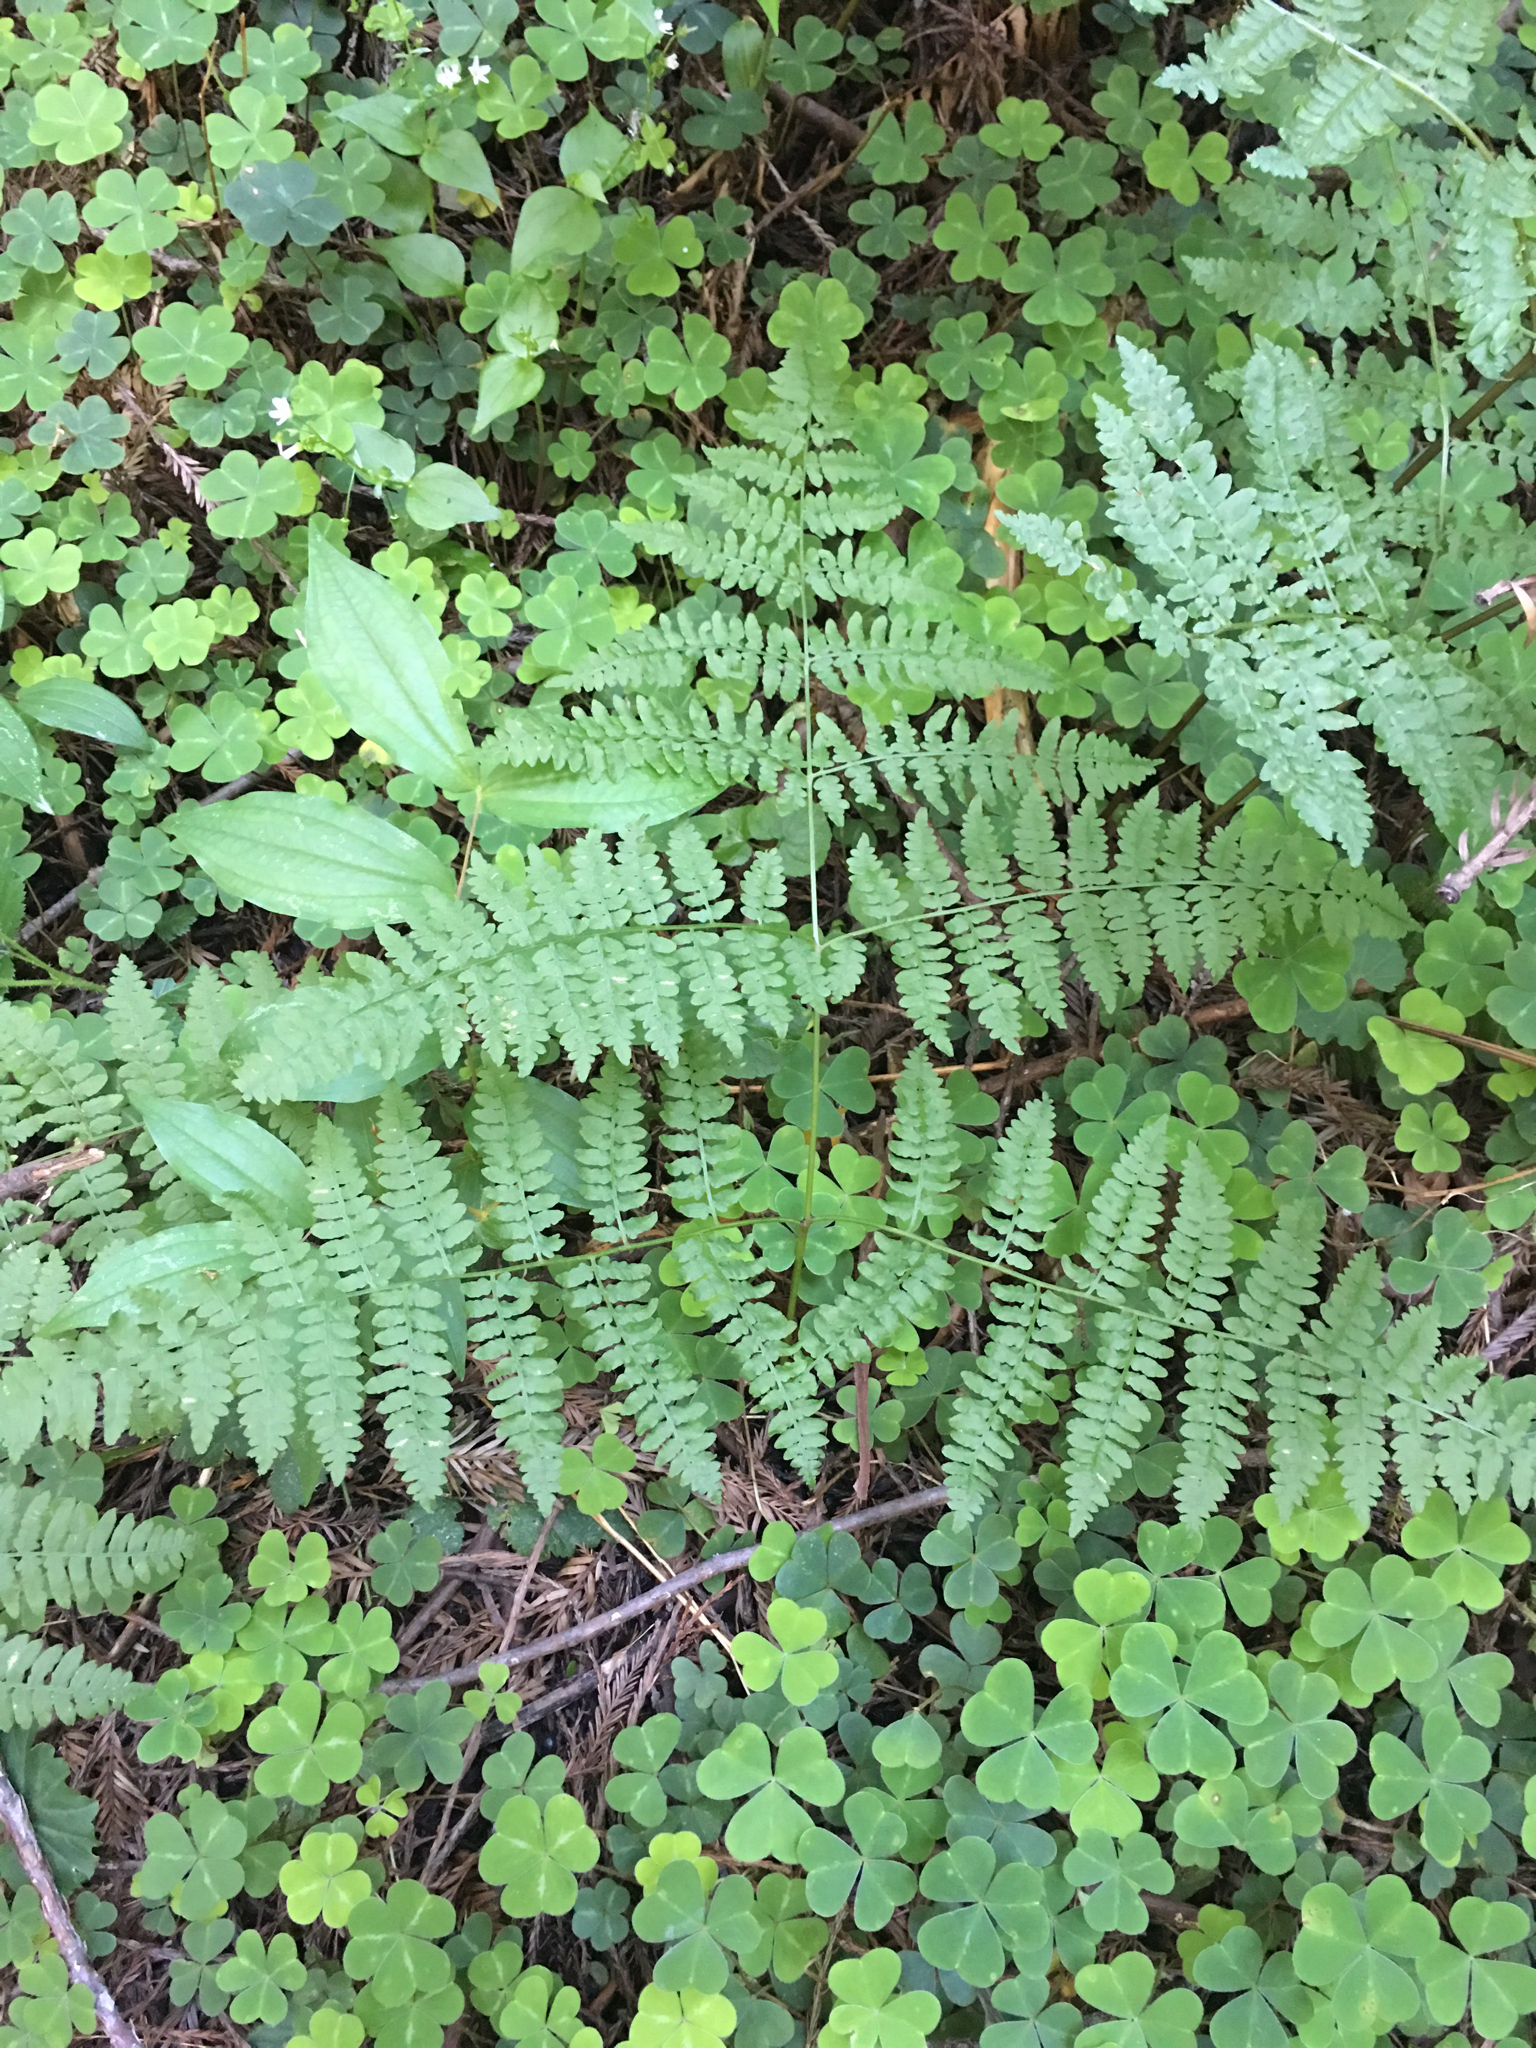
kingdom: Plantae
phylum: Tracheophyta
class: Polypodiopsida
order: Polypodiales
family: Dennstaedtiaceae
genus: Pteridium
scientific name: Pteridium aquilinum
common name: Bracken
